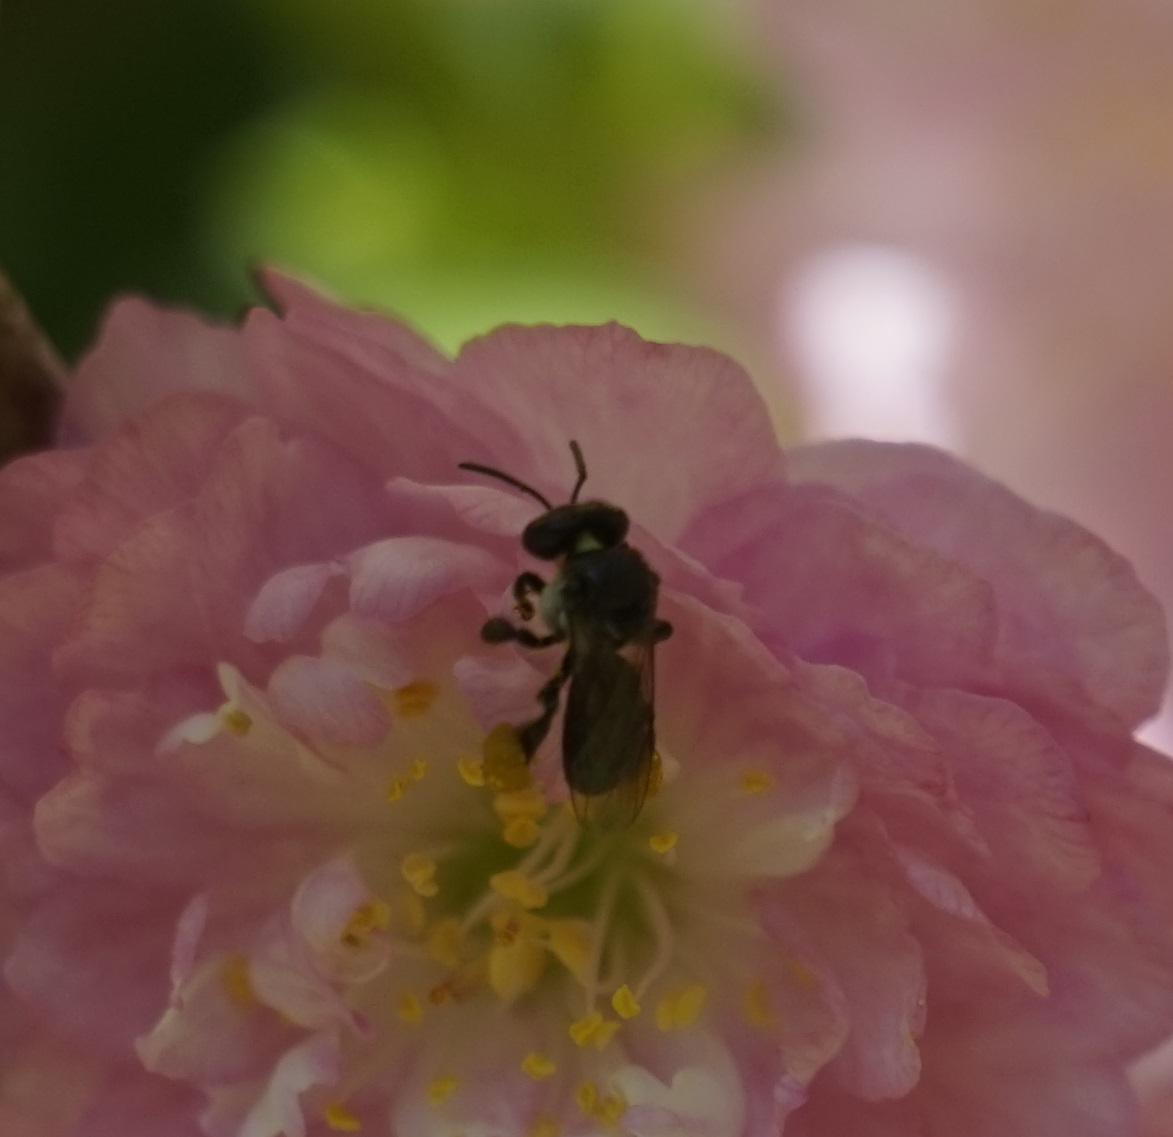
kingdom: Animalia
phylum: Arthropoda
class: Insecta
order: Hymenoptera
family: Apidae
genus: Tetragonula
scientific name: Tetragonula carbonaria
